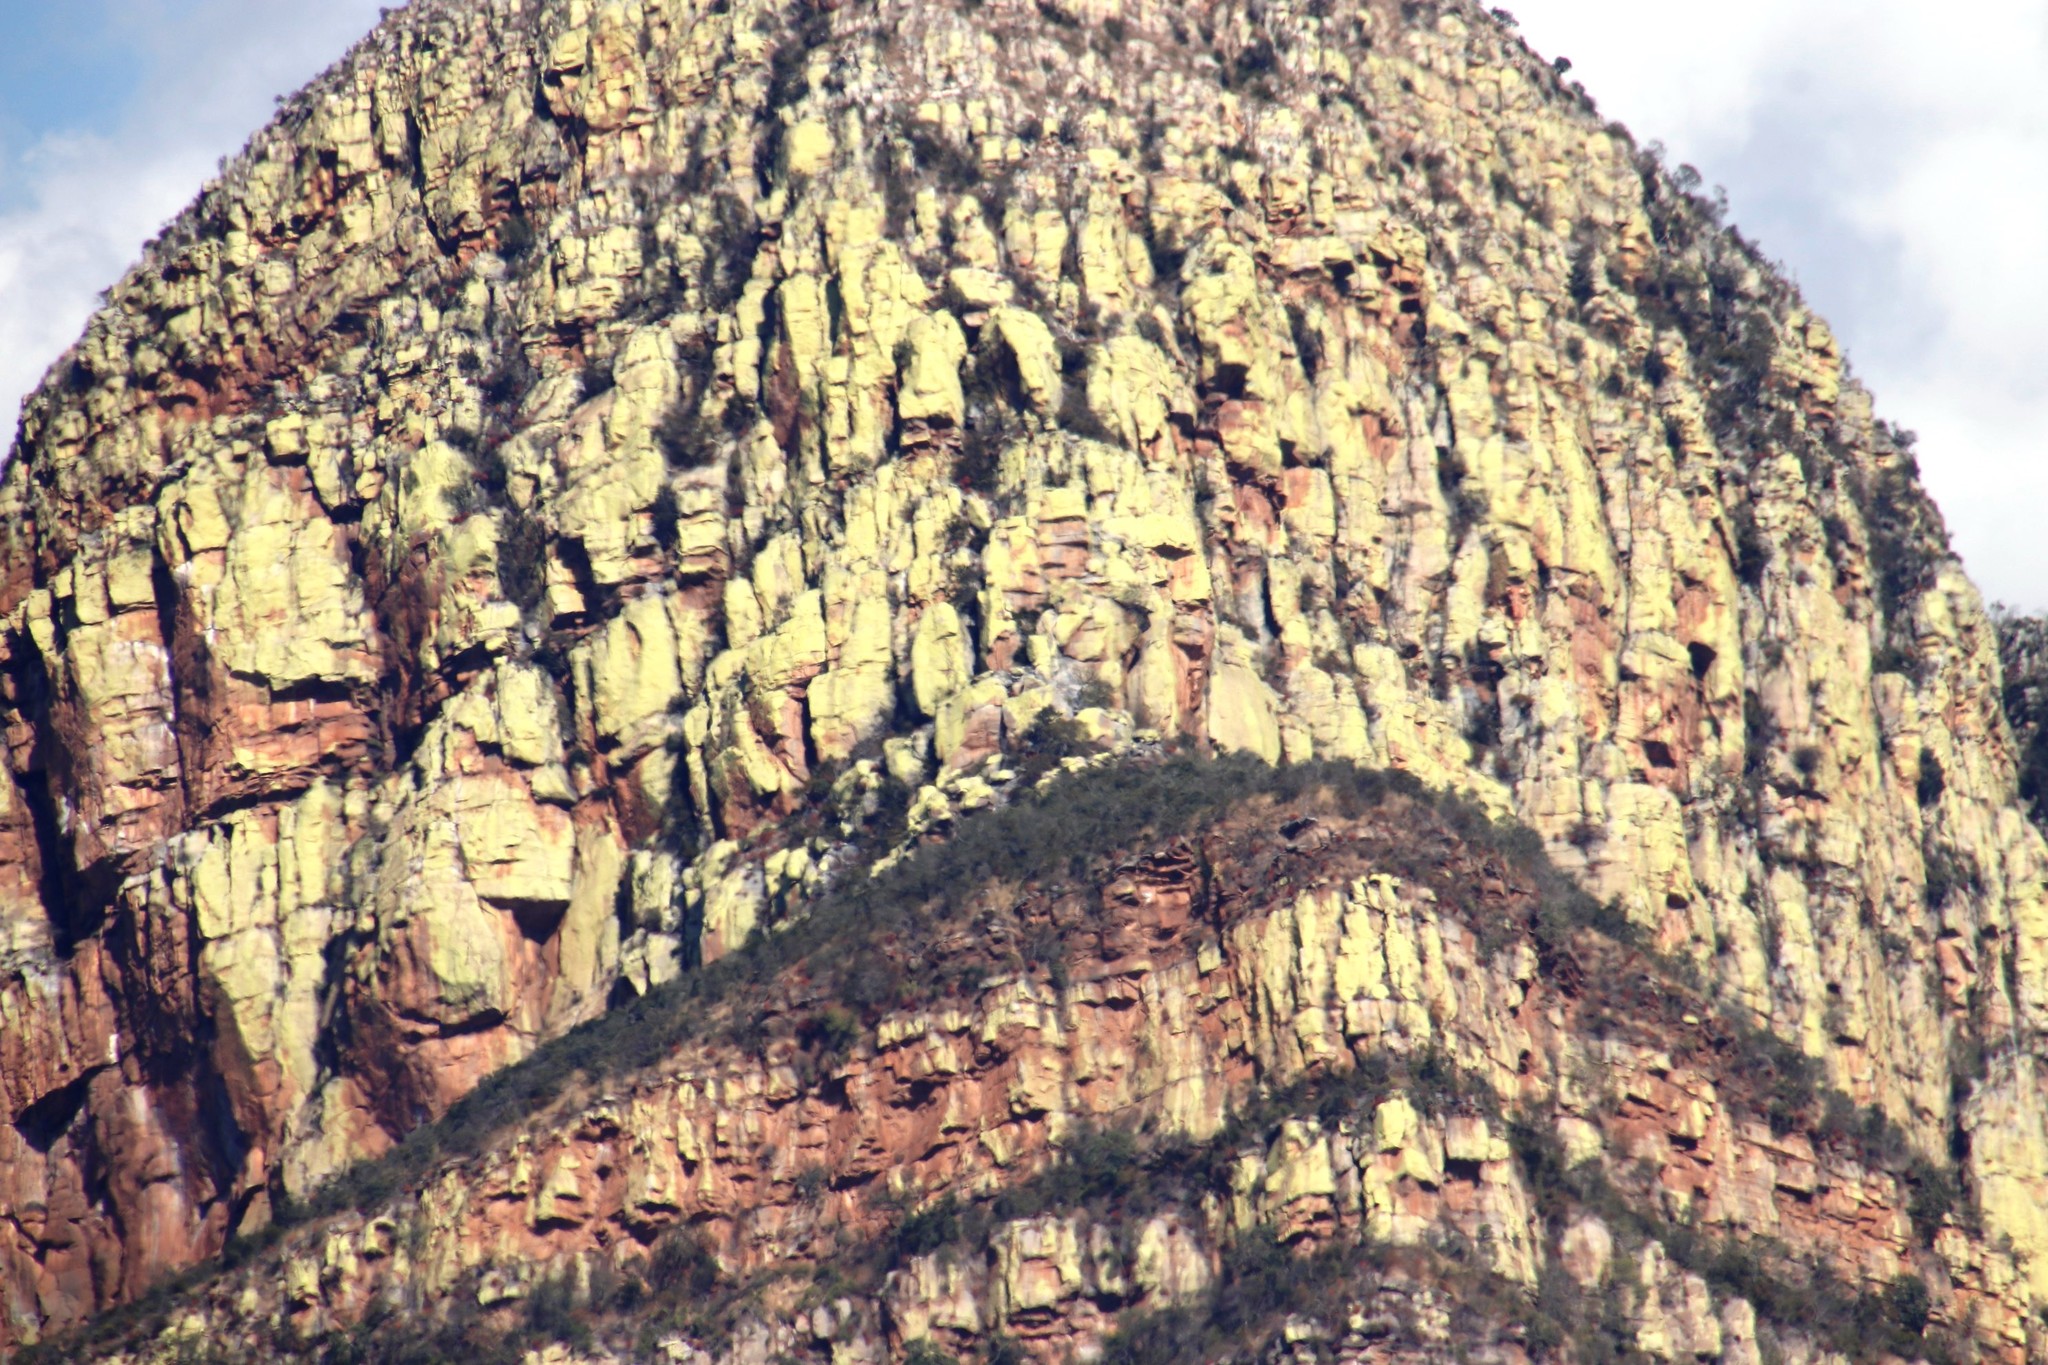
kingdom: Fungi
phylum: Ascomycota
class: Lecanoromycetes
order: Caliciales
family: Caliciaceae
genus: Dermatiscum
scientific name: Dermatiscum thunbergii
